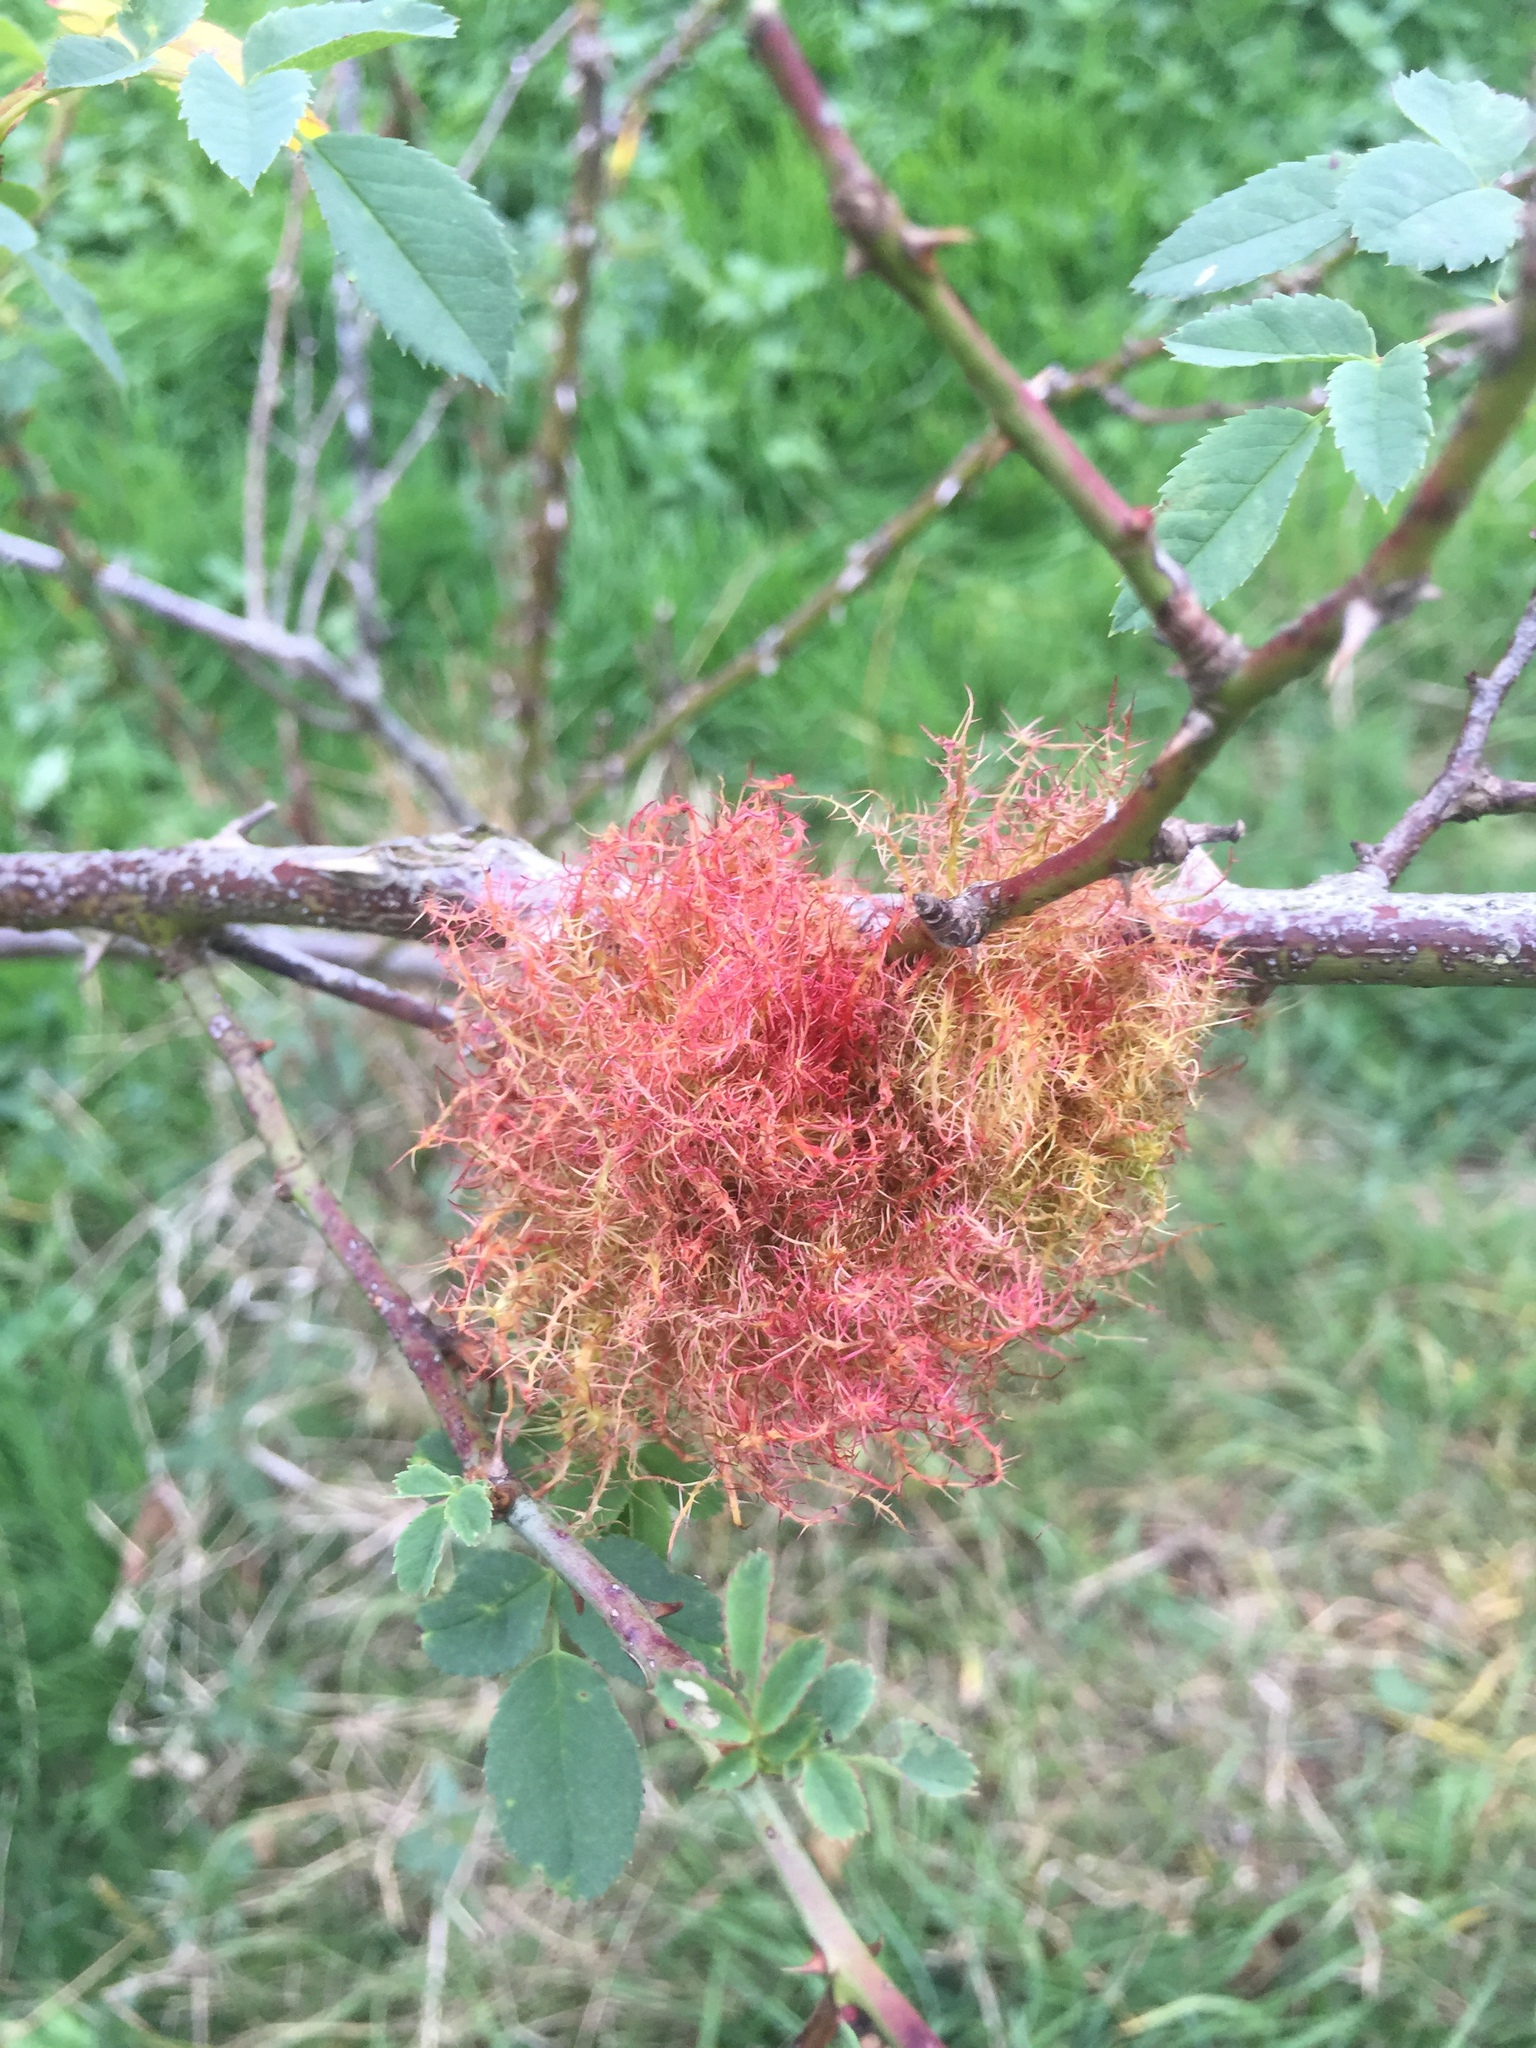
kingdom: Animalia
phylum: Arthropoda
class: Insecta
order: Hymenoptera
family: Cynipidae
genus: Diplolepis
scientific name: Diplolepis rosae
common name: Bedeguar gall
